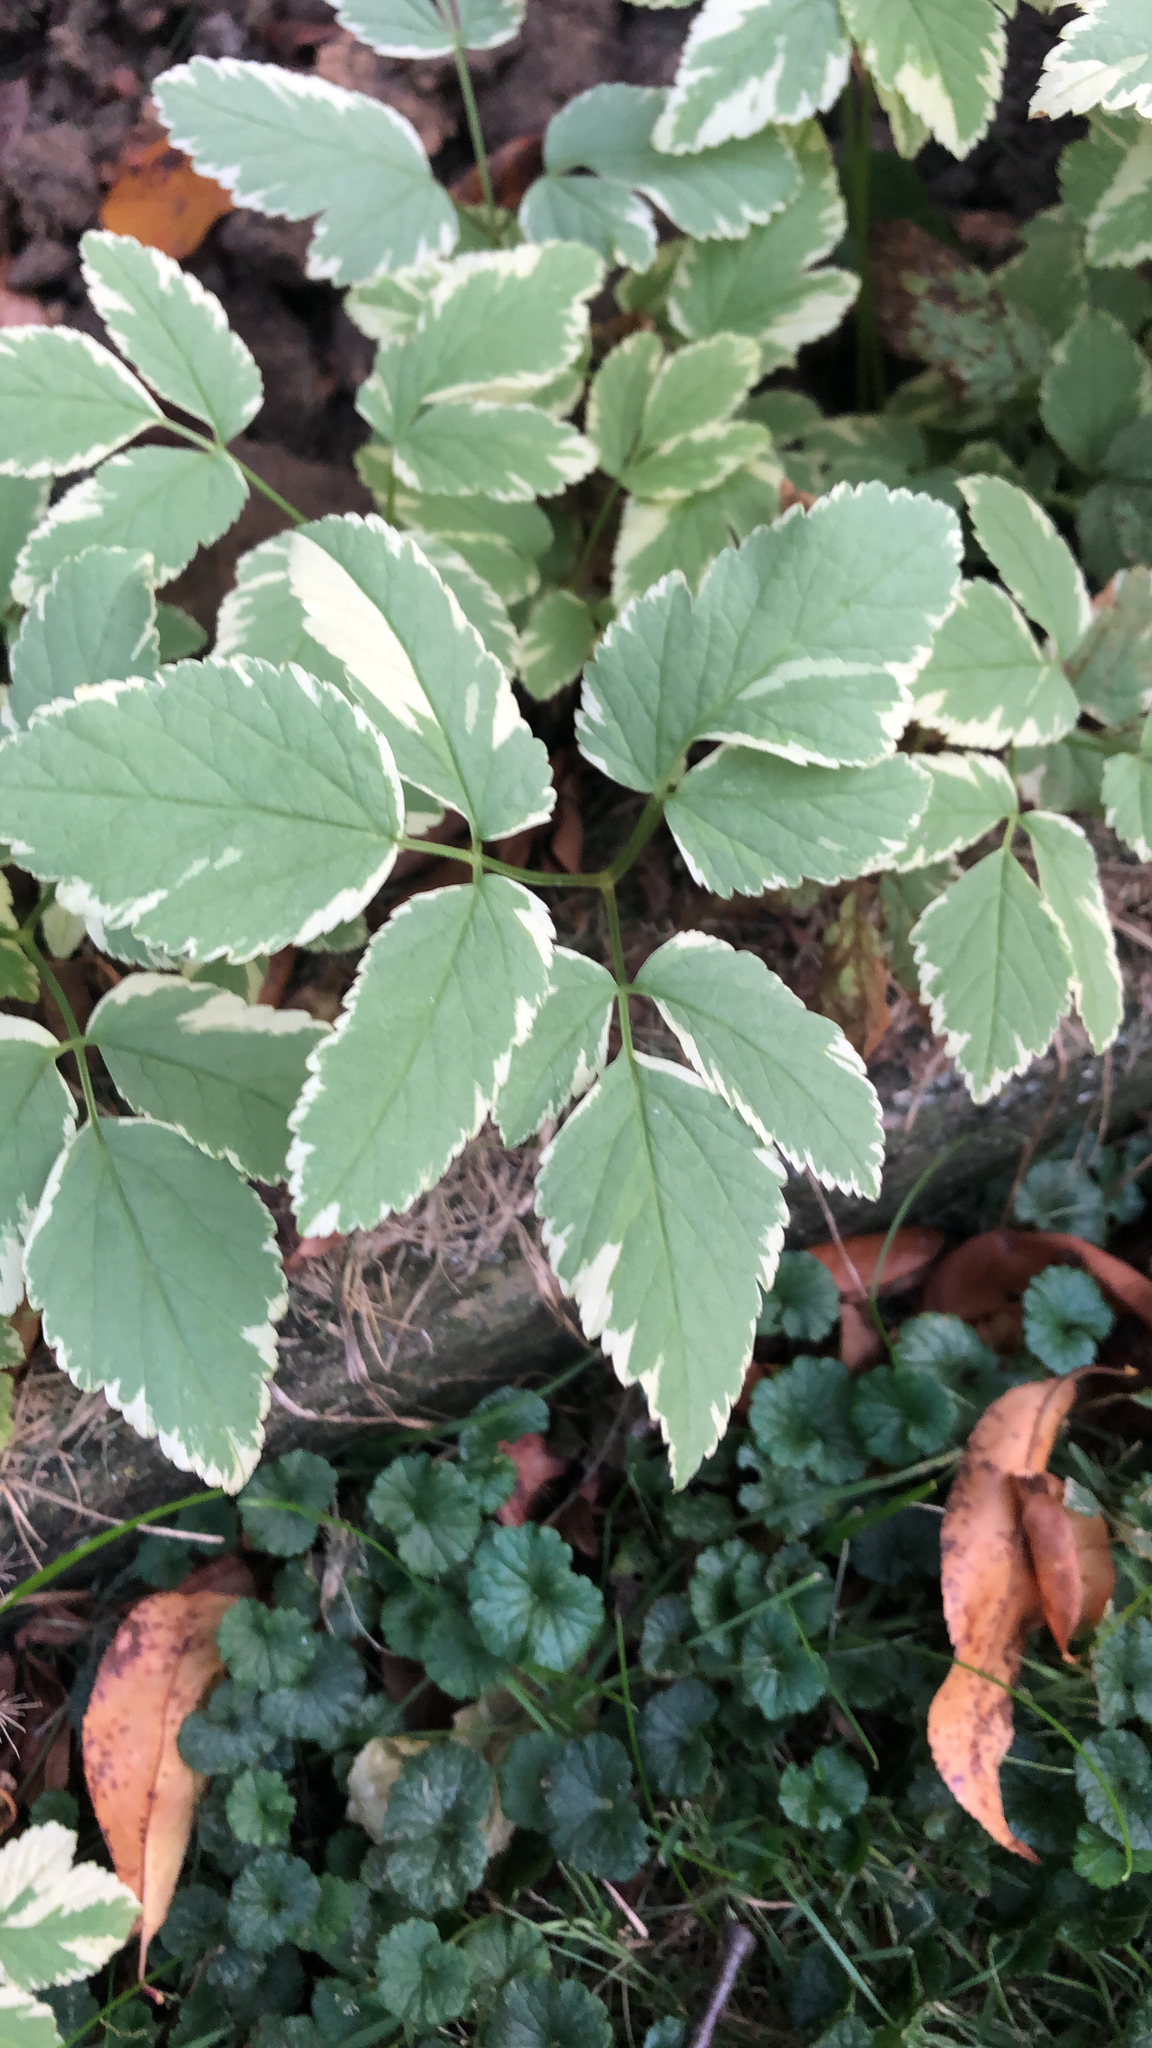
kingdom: Plantae
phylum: Tracheophyta
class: Magnoliopsida
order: Apiales
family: Apiaceae
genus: Aegopodium
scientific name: Aegopodium podagraria
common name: Ground-elder
